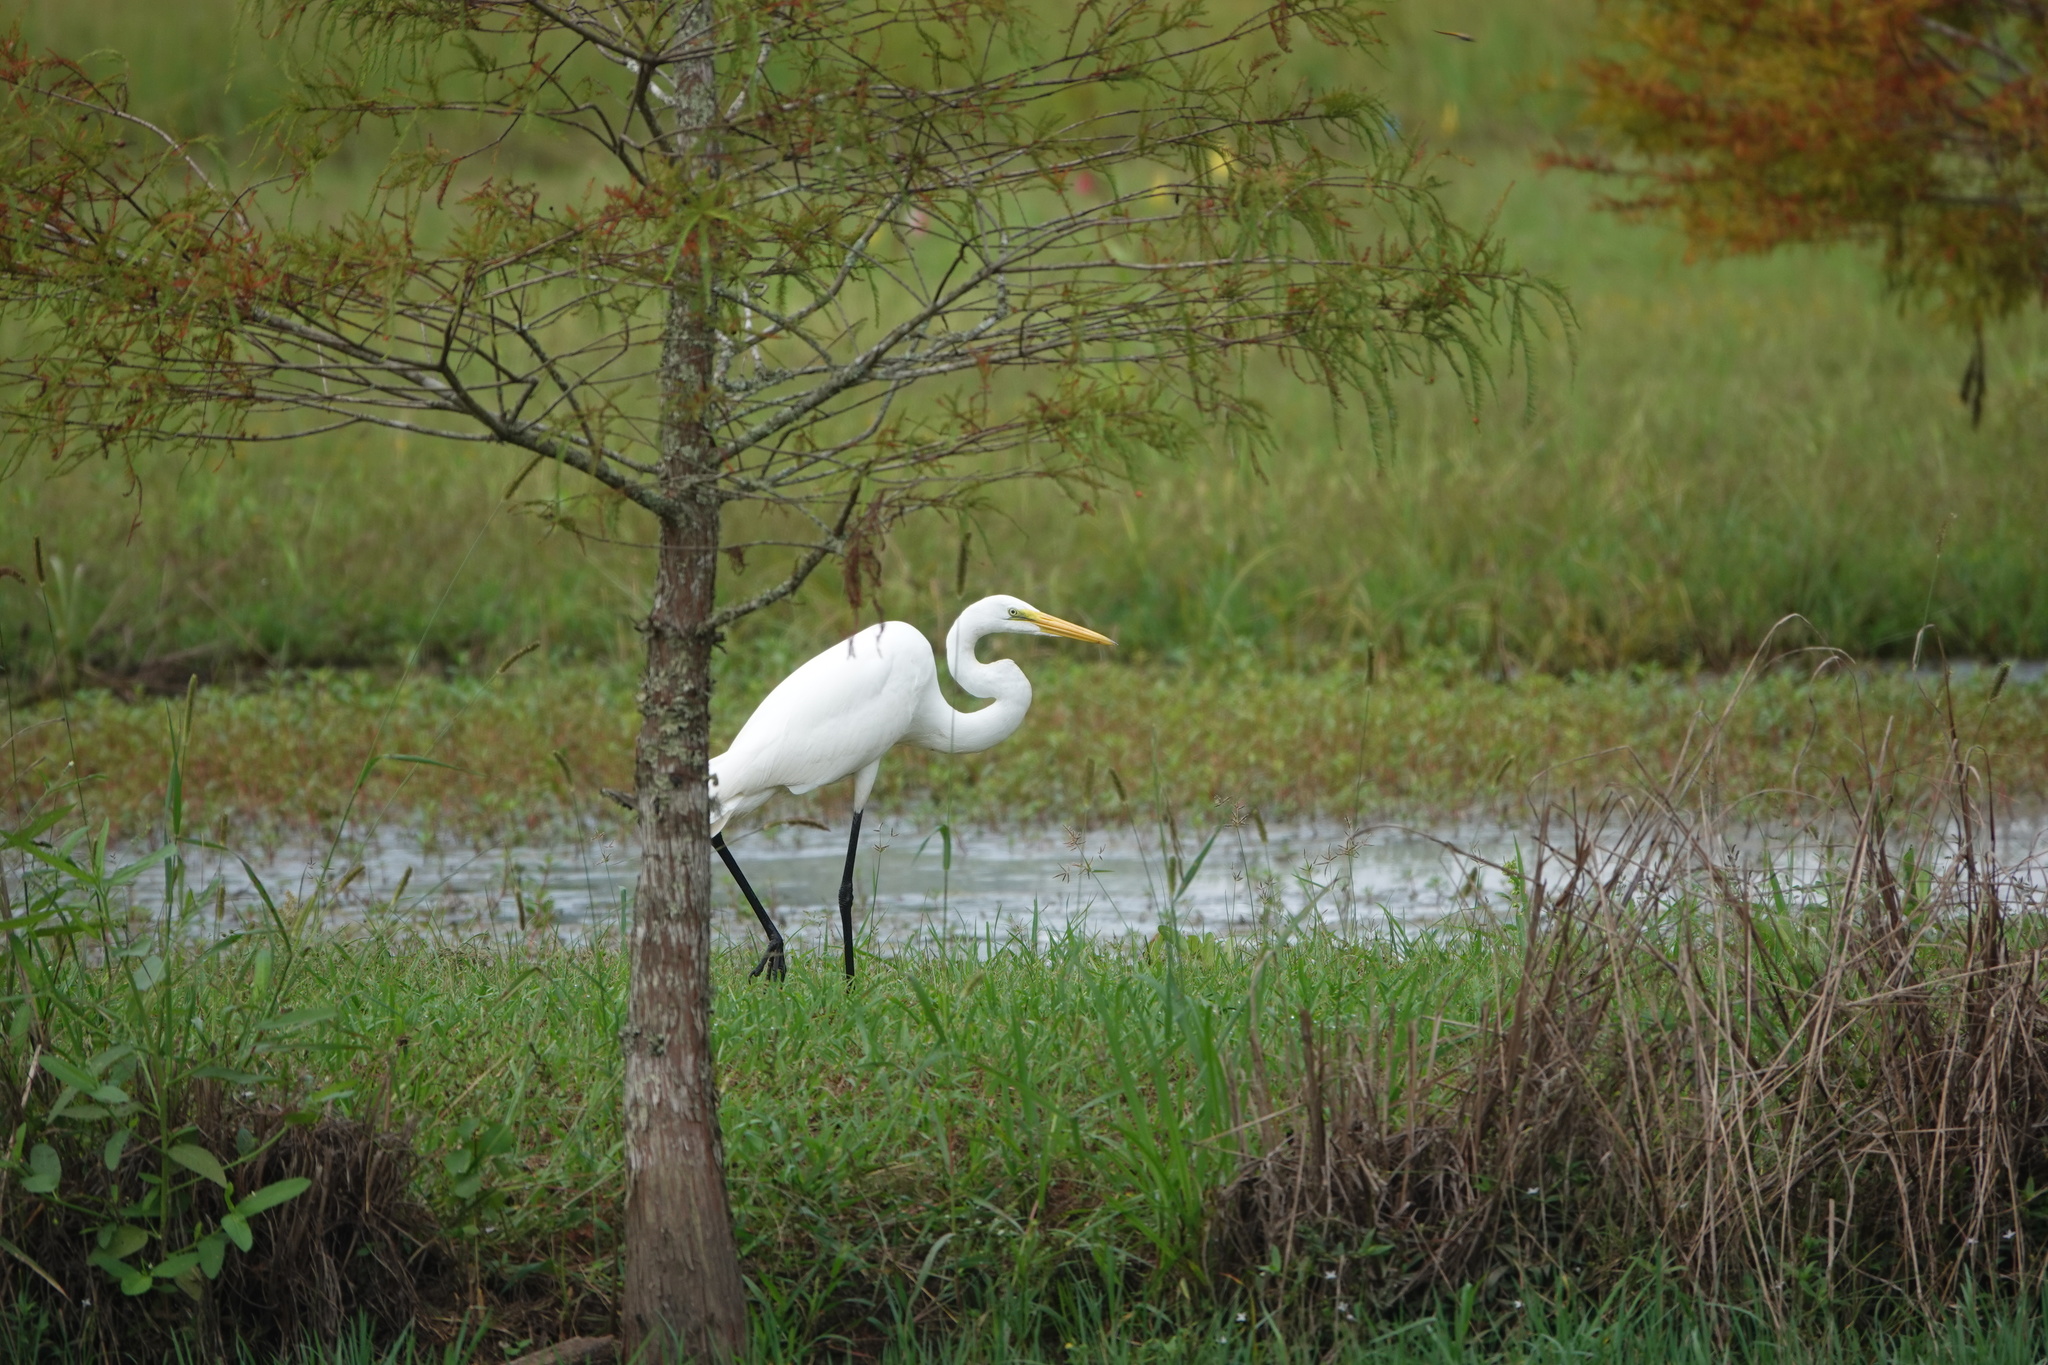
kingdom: Animalia
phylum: Chordata
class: Aves
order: Pelecaniformes
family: Ardeidae
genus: Ardea
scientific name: Ardea alba
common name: Great egret
